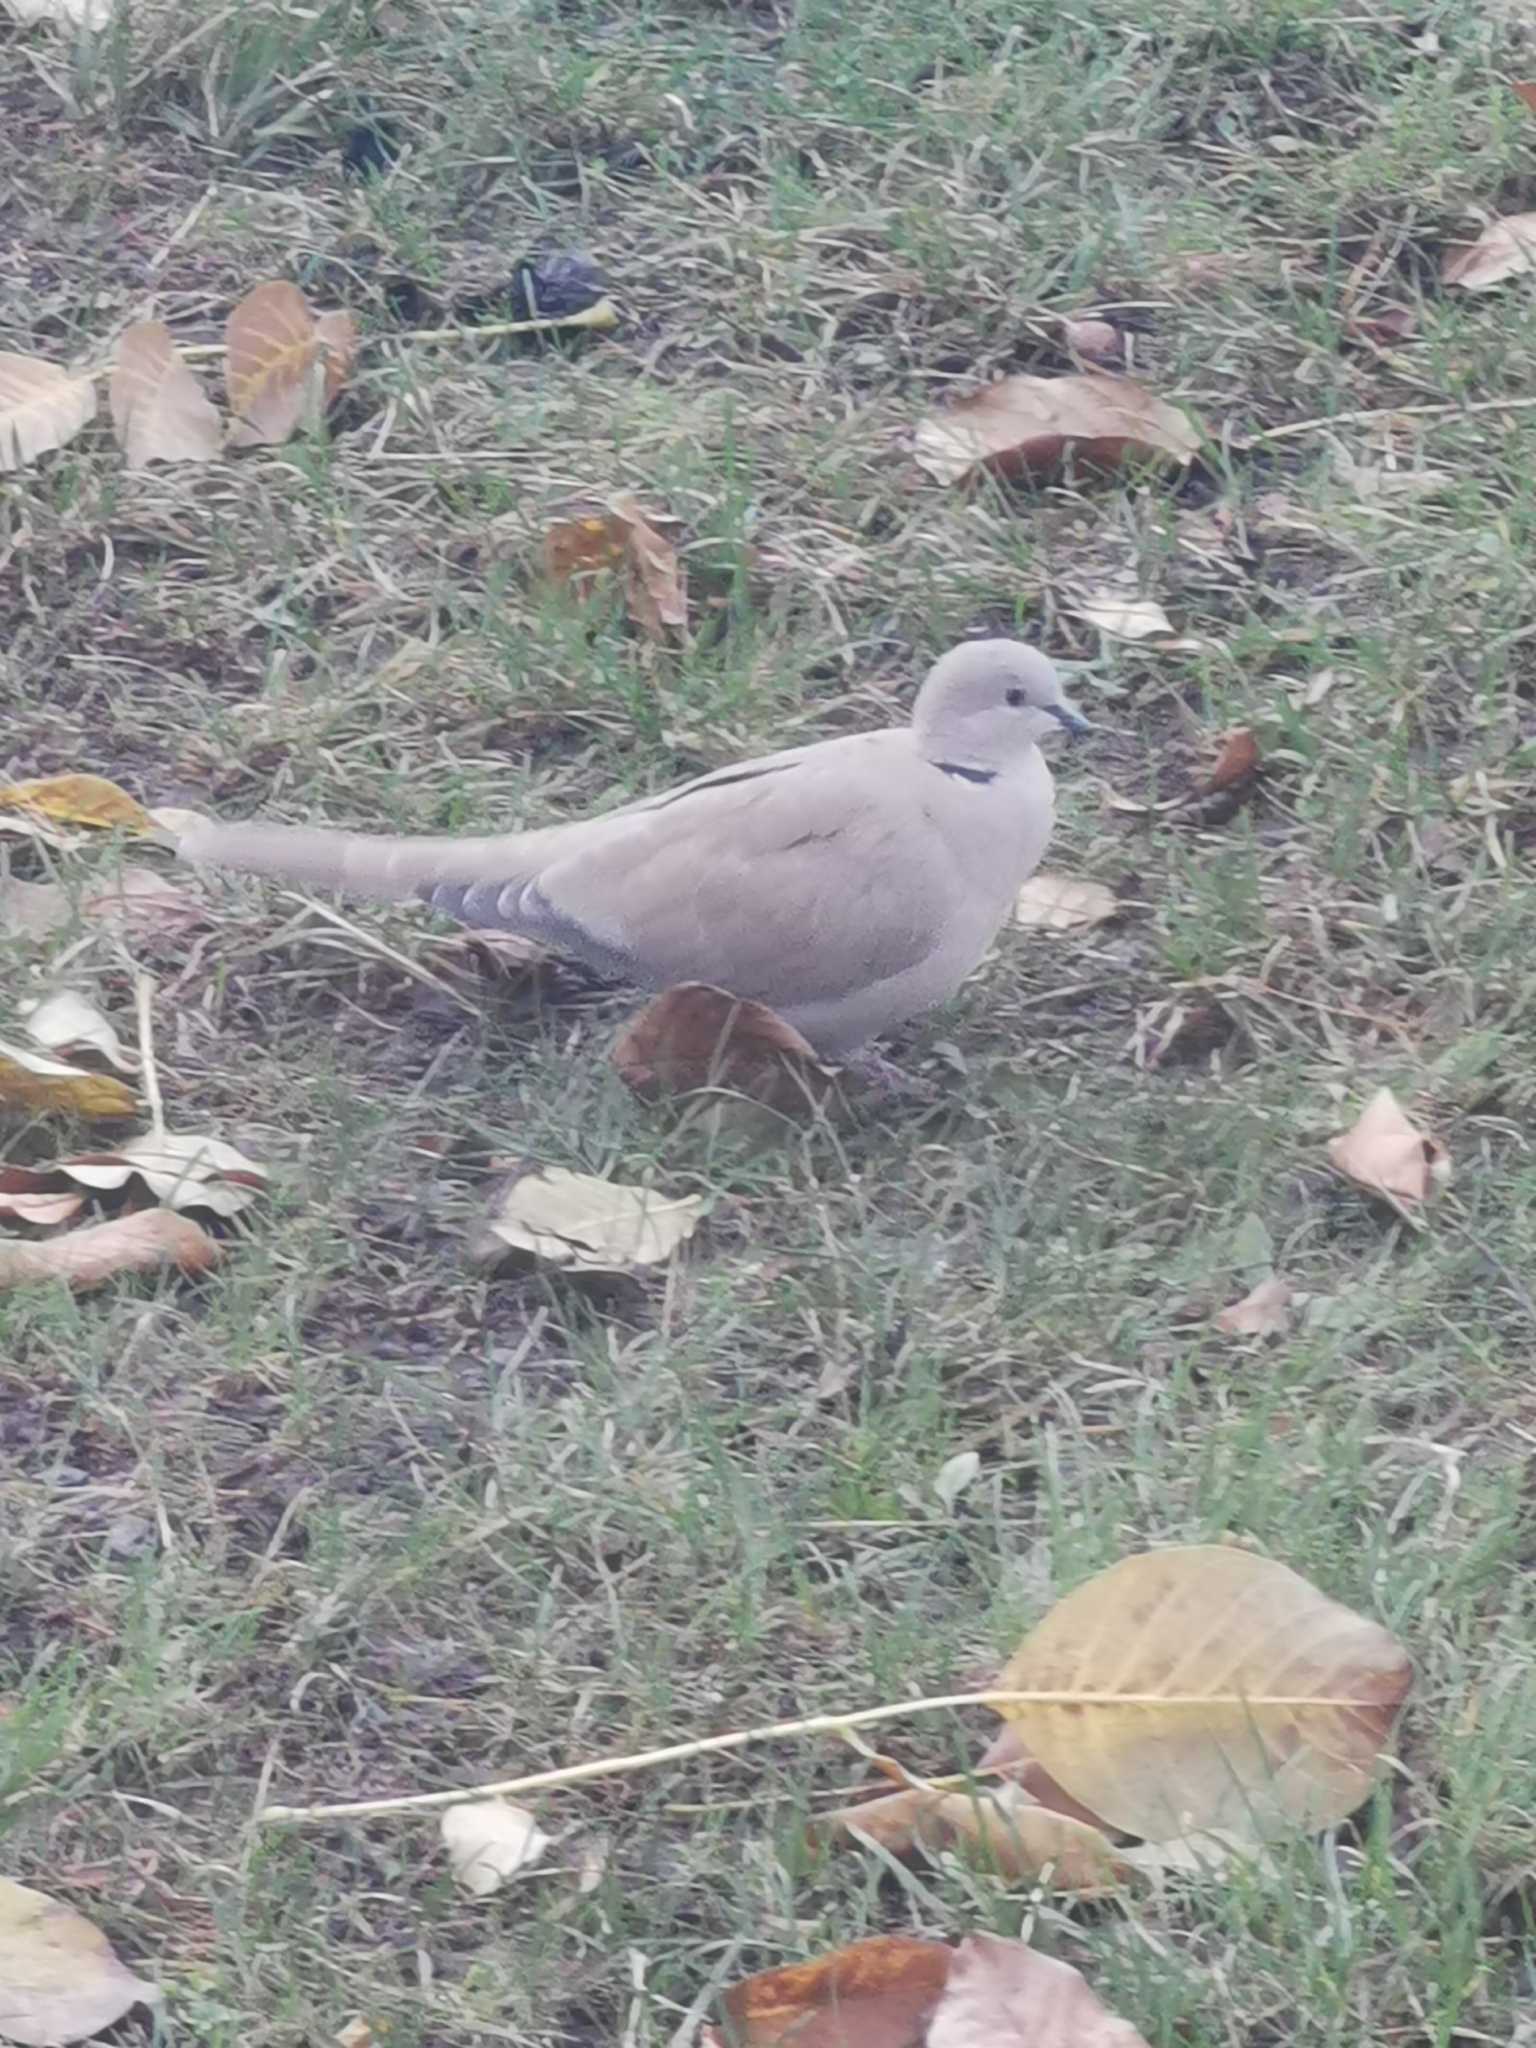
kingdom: Animalia
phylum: Chordata
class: Aves
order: Columbiformes
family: Columbidae
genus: Streptopelia
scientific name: Streptopelia decaocto
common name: Eurasian collared dove
